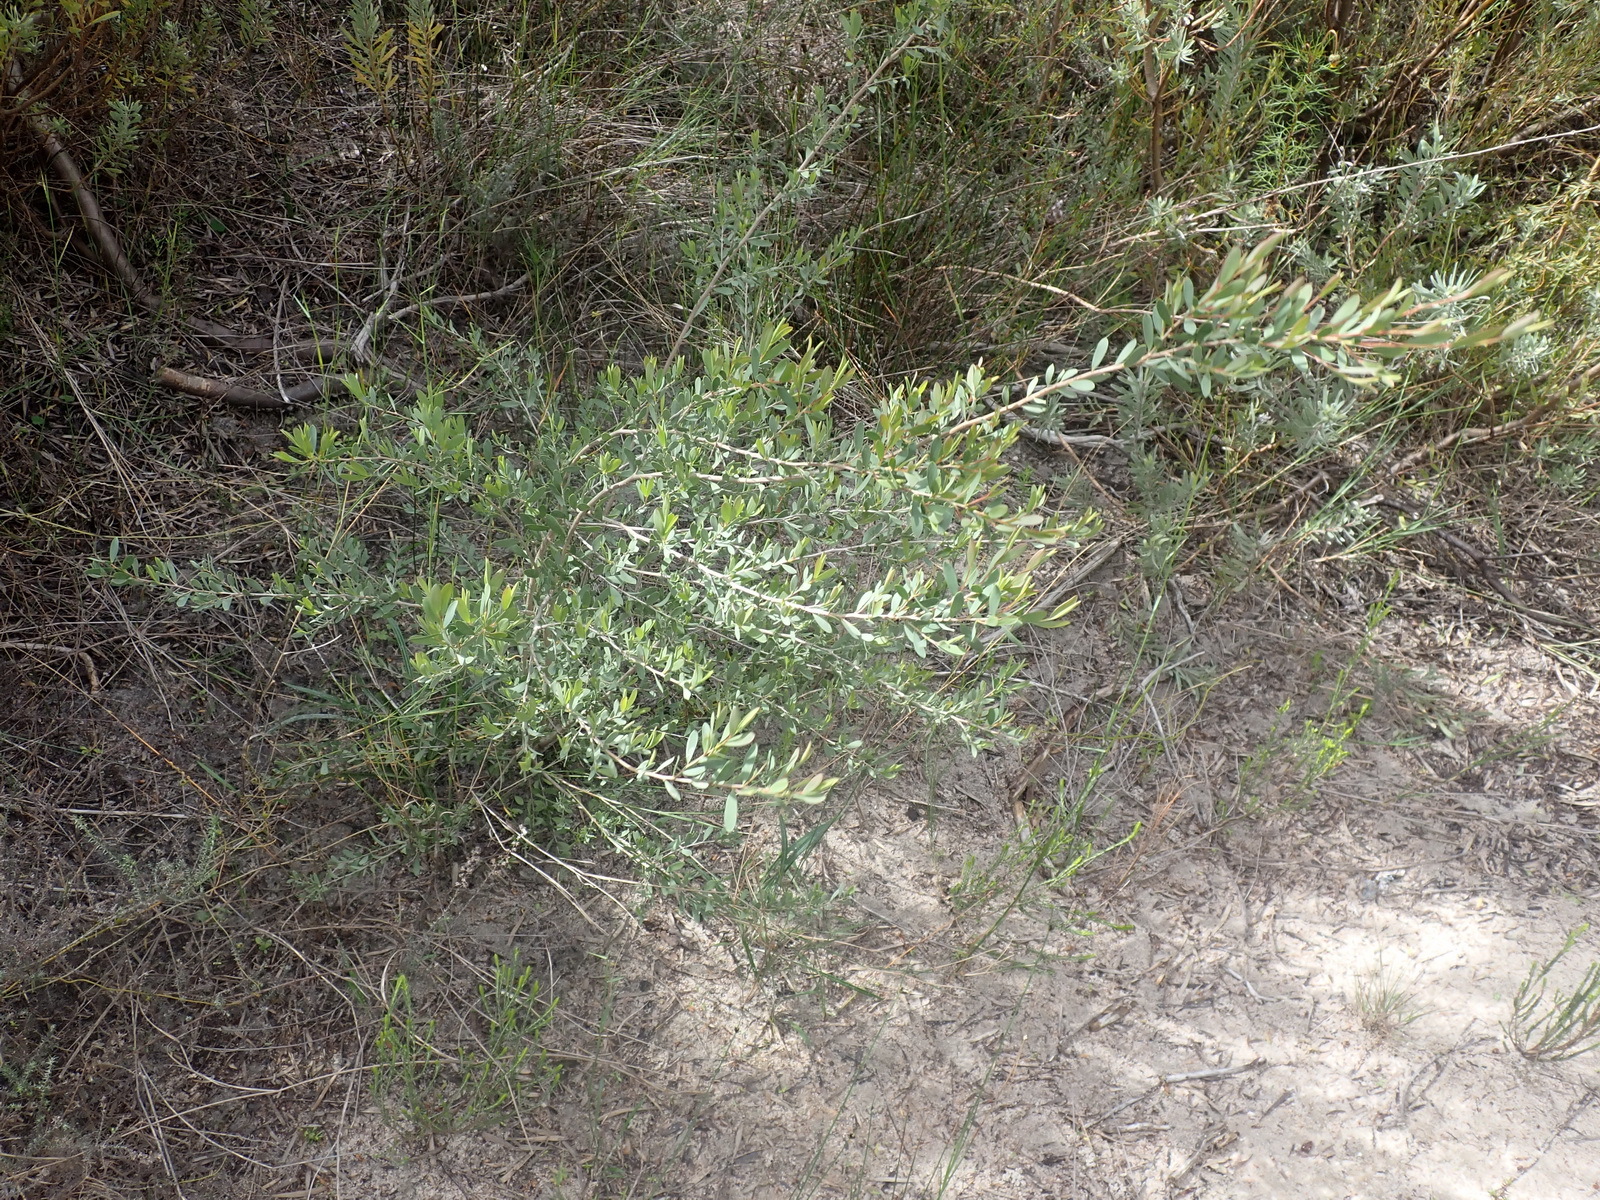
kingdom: Plantae
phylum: Tracheophyta
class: Magnoliopsida
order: Myrtales
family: Myrtaceae
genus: Leptospermum
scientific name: Leptospermum laevigatum
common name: Australian teatree
